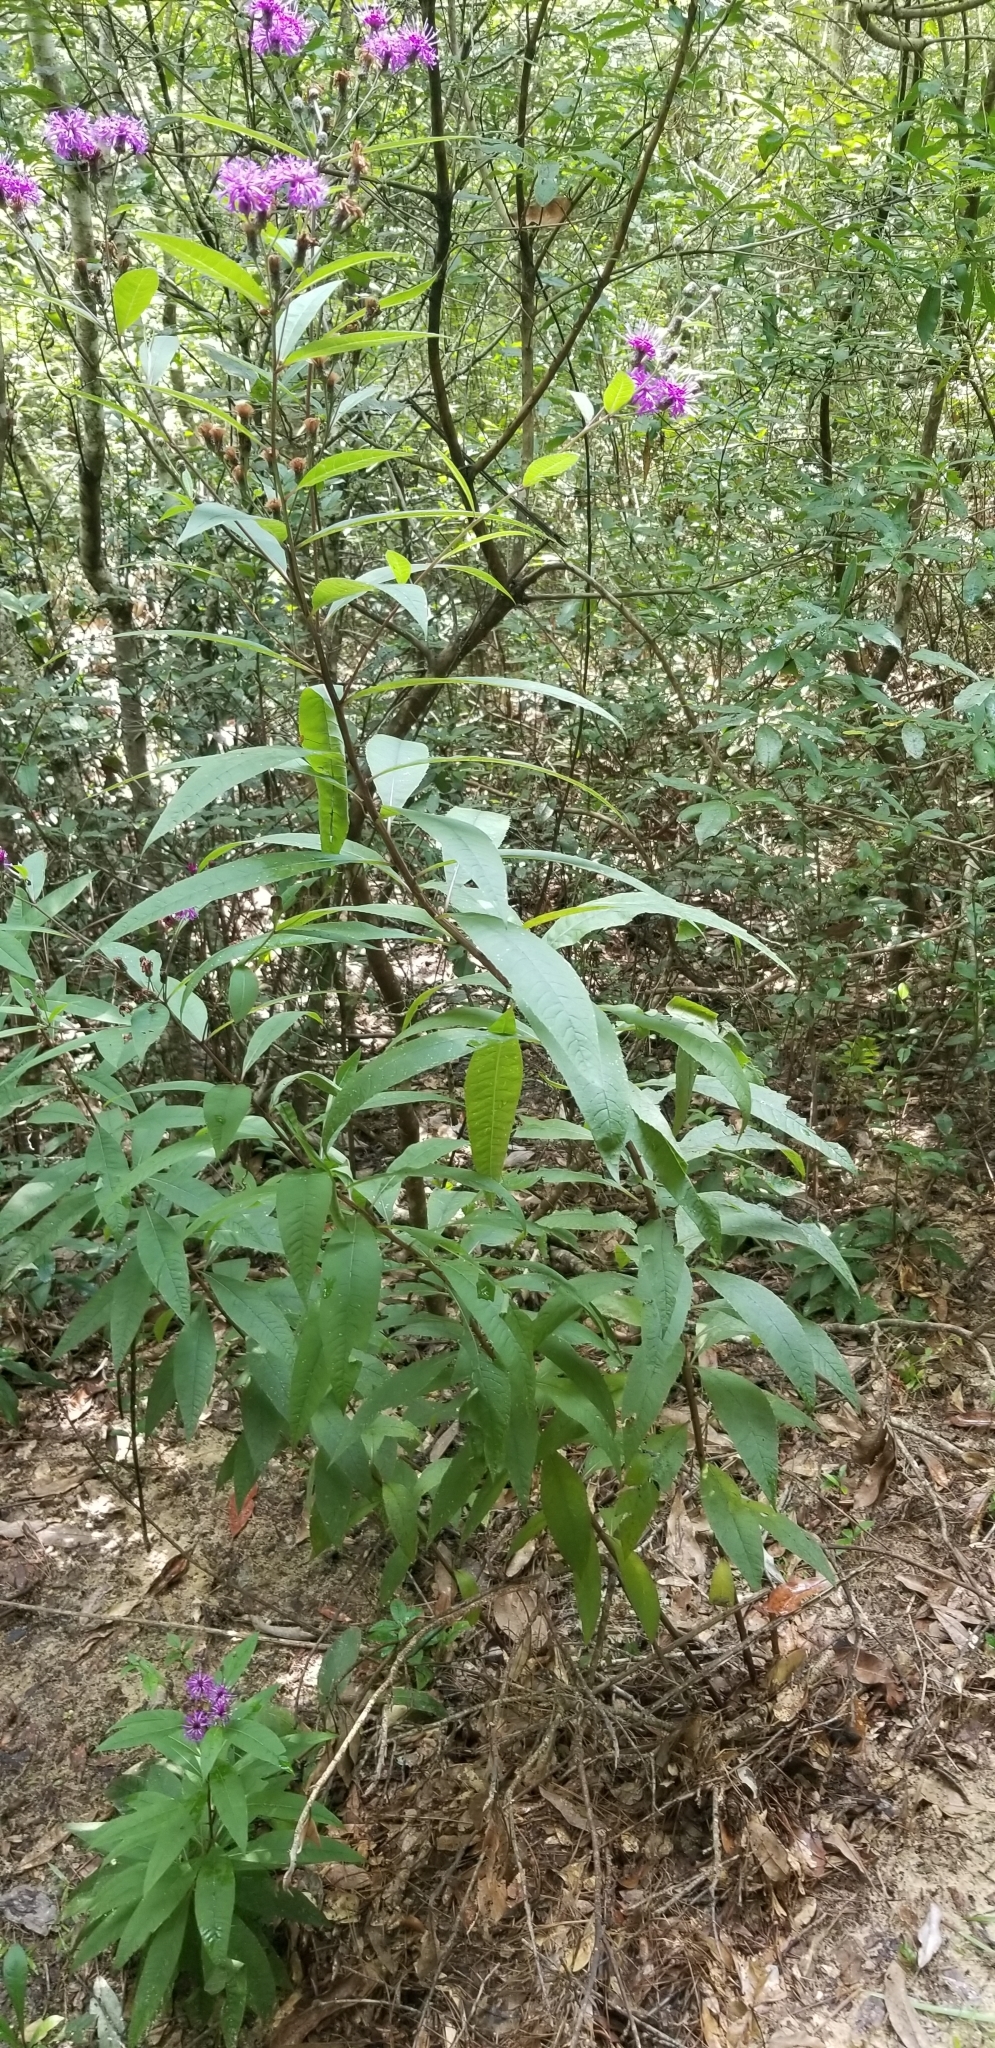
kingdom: Plantae
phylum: Tracheophyta
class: Magnoliopsida
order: Asterales
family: Asteraceae
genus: Vernonia
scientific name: Vernonia gigantea
